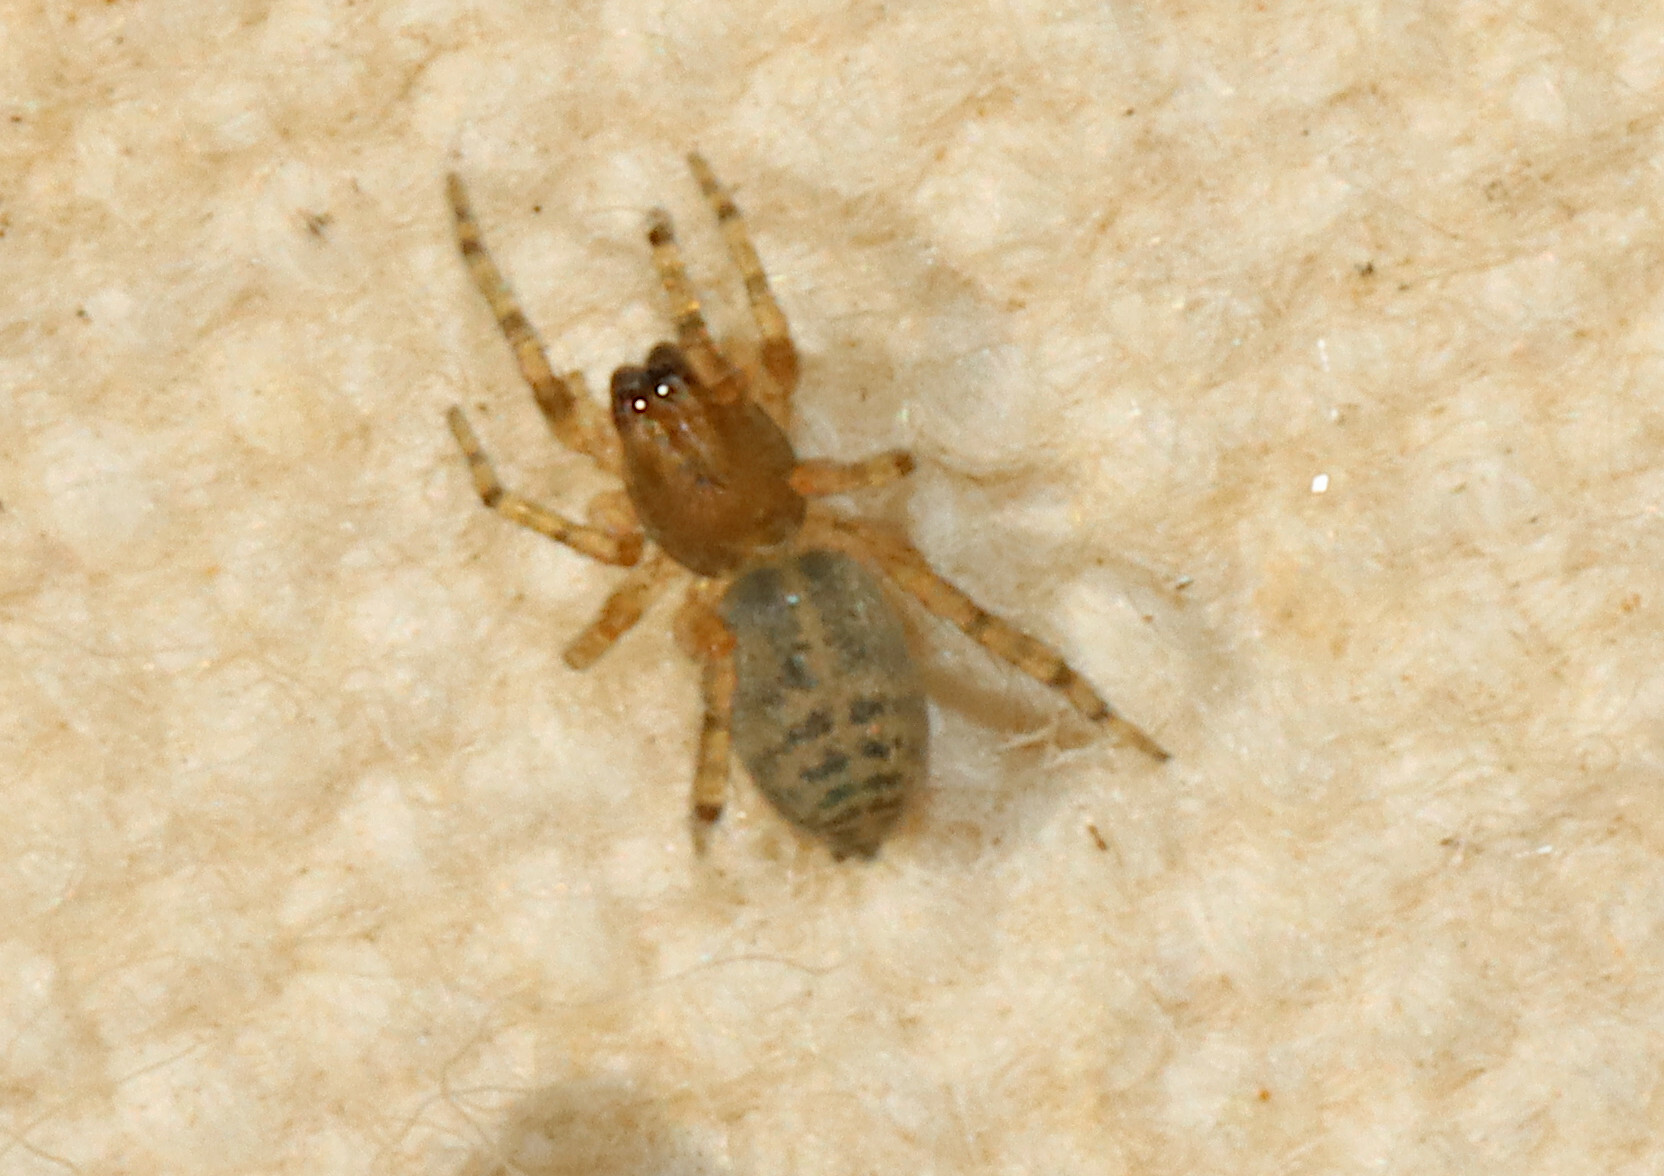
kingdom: Animalia
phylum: Arthropoda
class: Arachnida
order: Araneae
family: Anyphaenidae
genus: Lupettiana
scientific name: Lupettiana mordax
